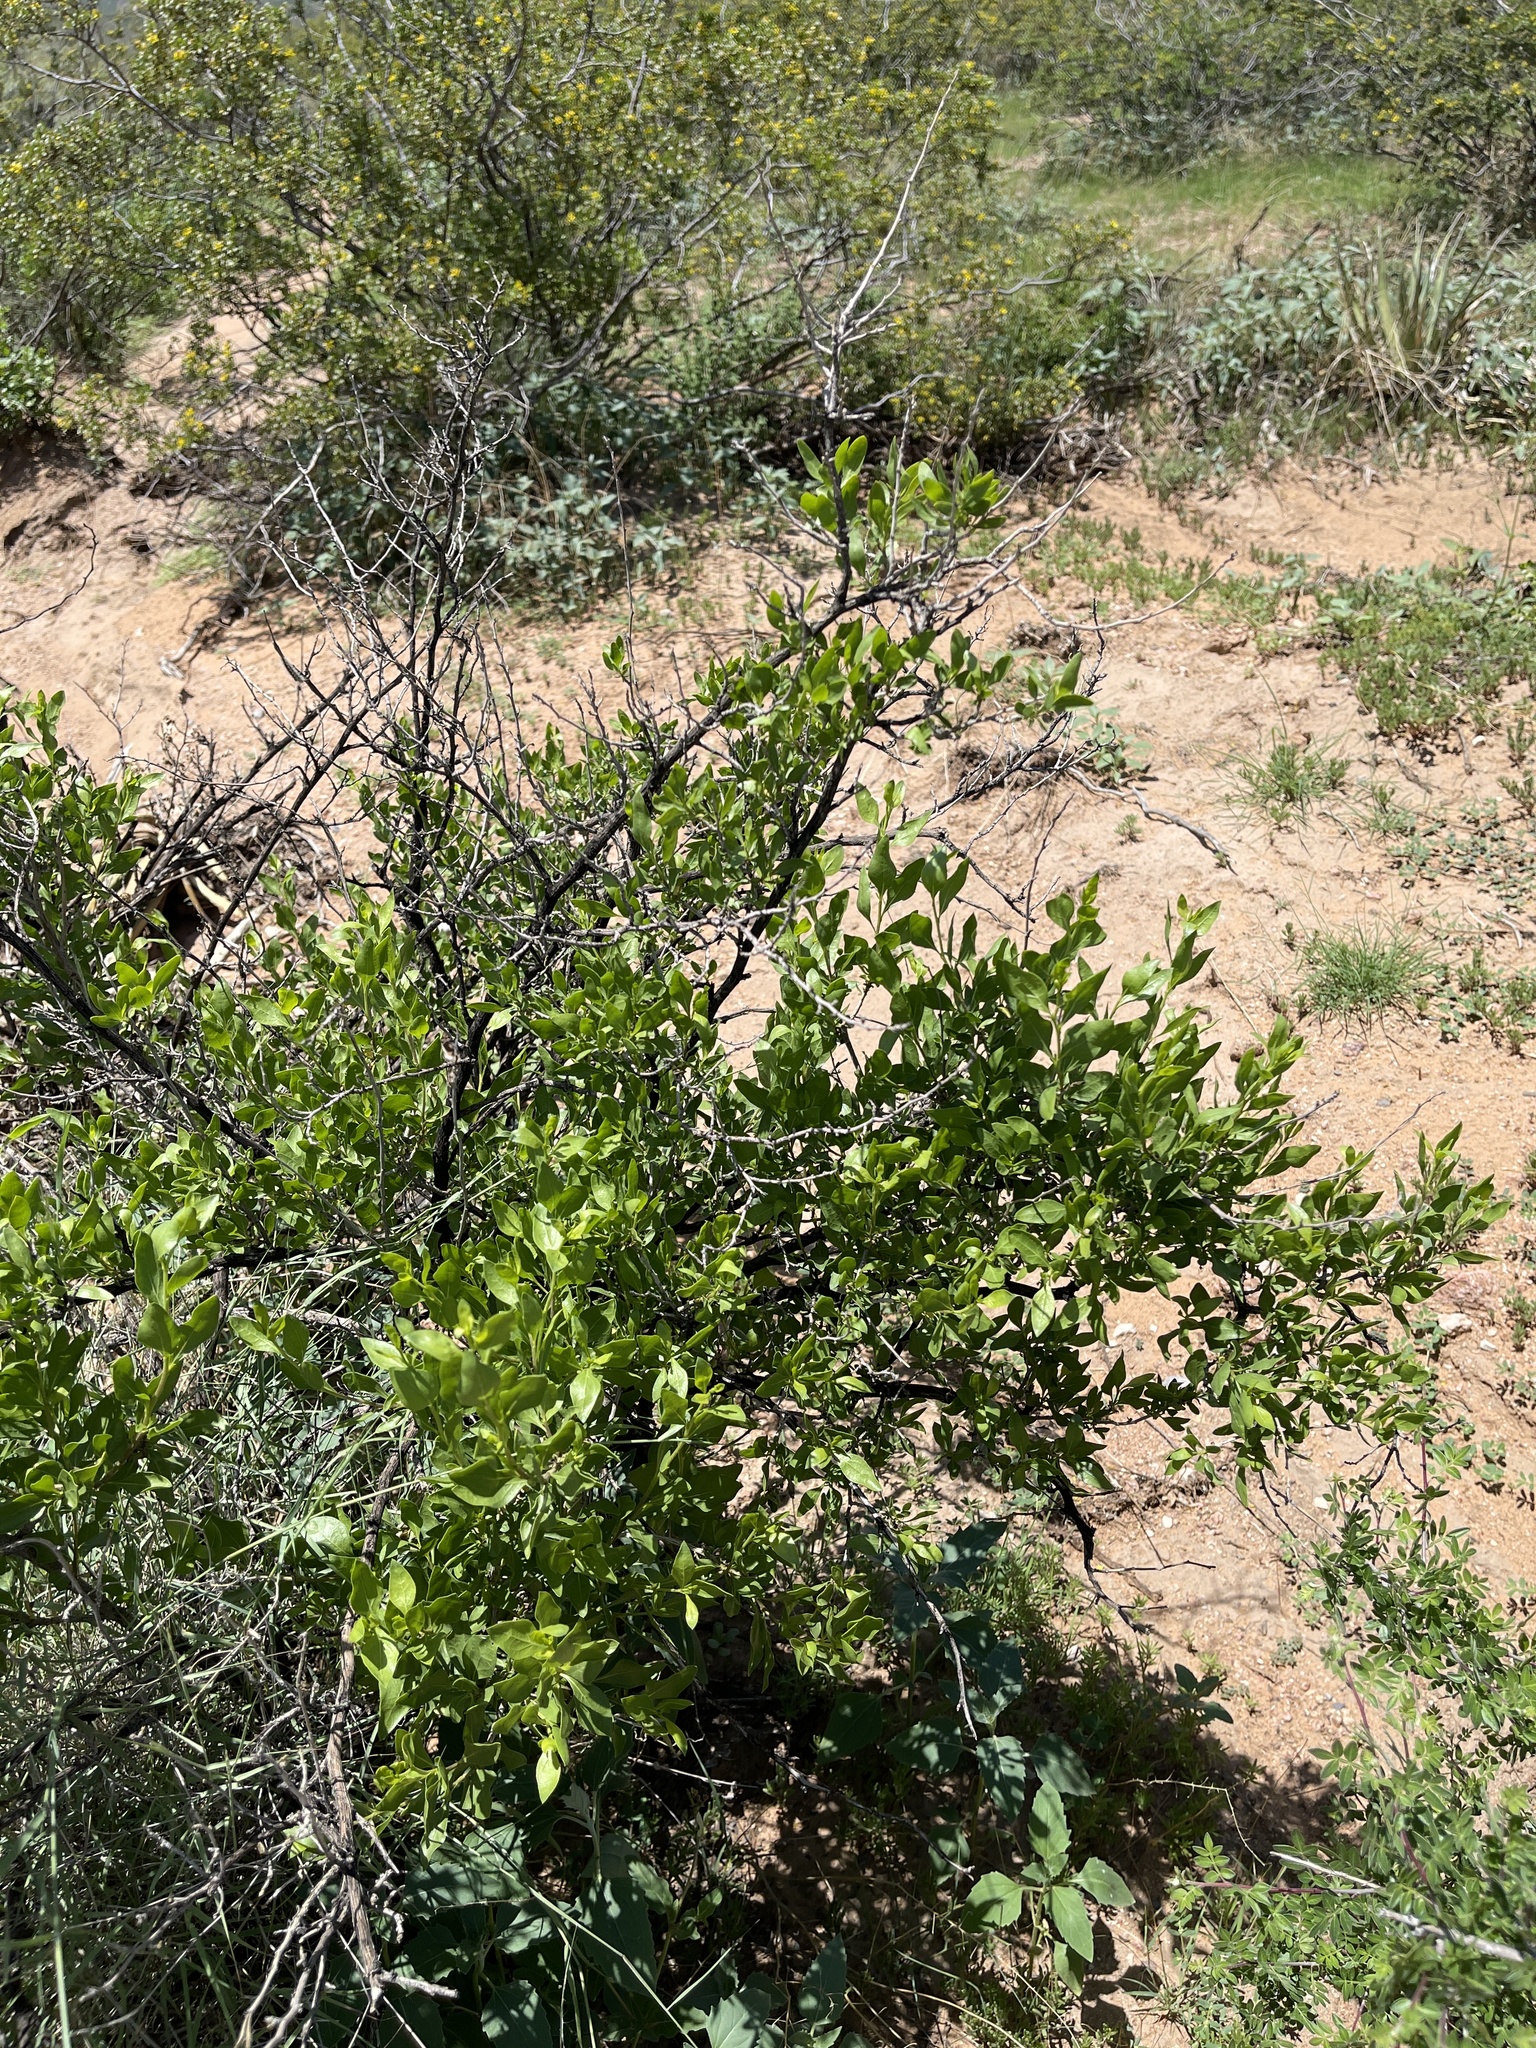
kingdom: Plantae
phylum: Tracheophyta
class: Magnoliopsida
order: Asterales
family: Asteraceae
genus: Flourensia
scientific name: Flourensia cernua
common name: Varnishbush
